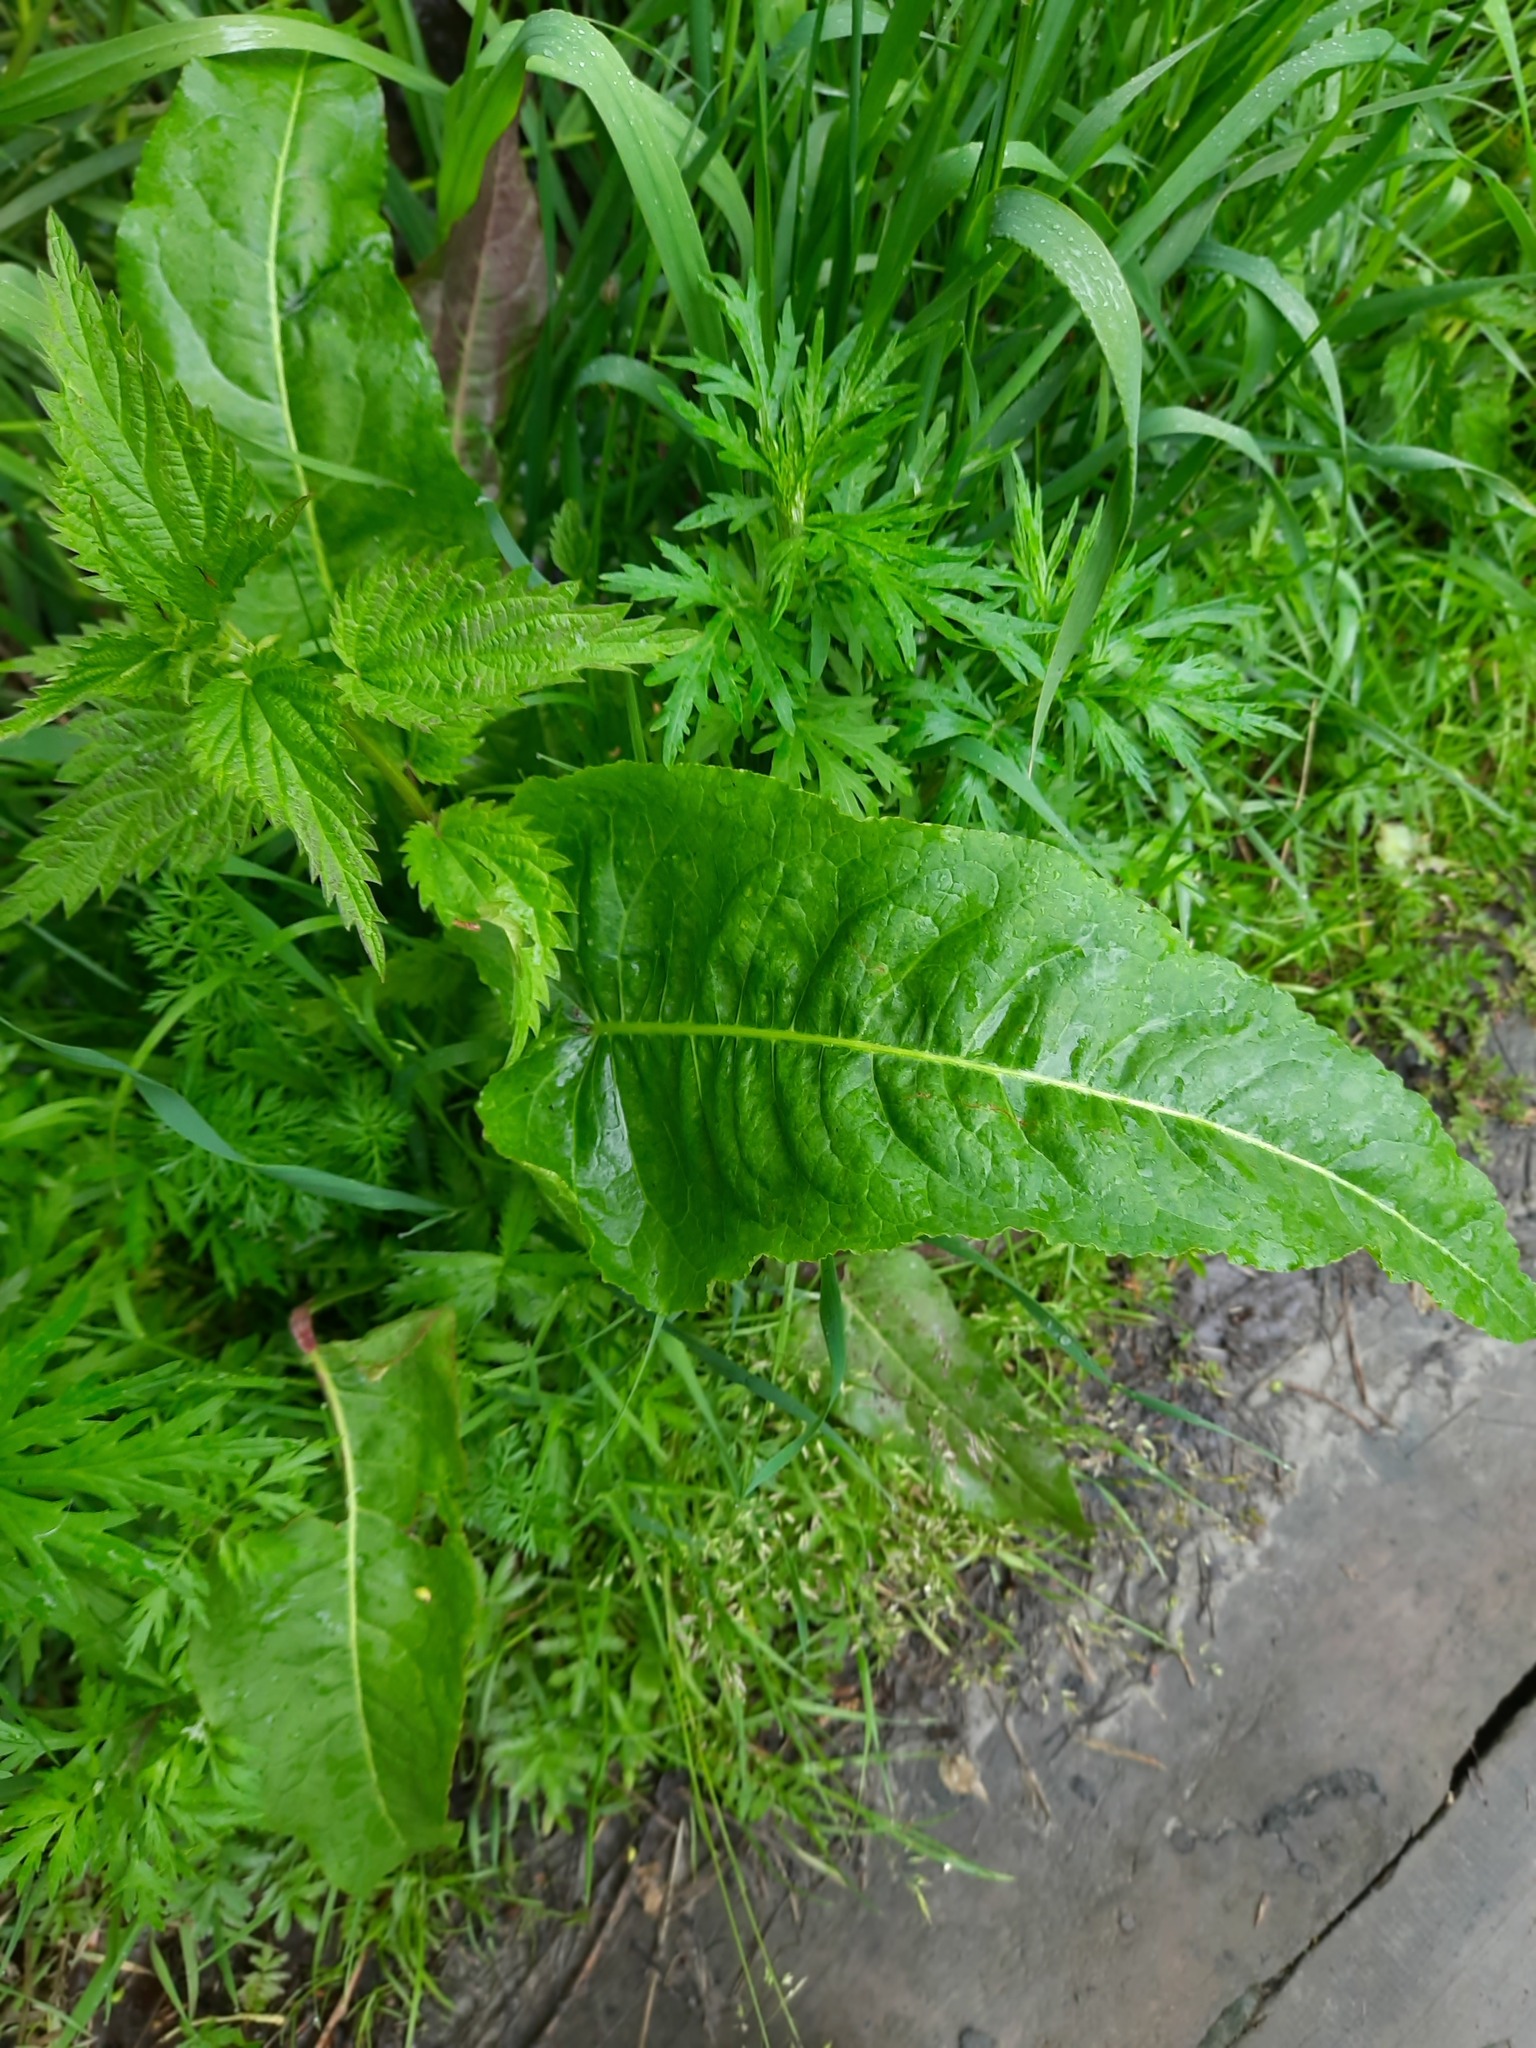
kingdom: Plantae
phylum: Tracheophyta
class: Magnoliopsida
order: Caryophyllales
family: Polygonaceae
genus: Rumex
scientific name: Rumex aquaticus
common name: Scottish dock
